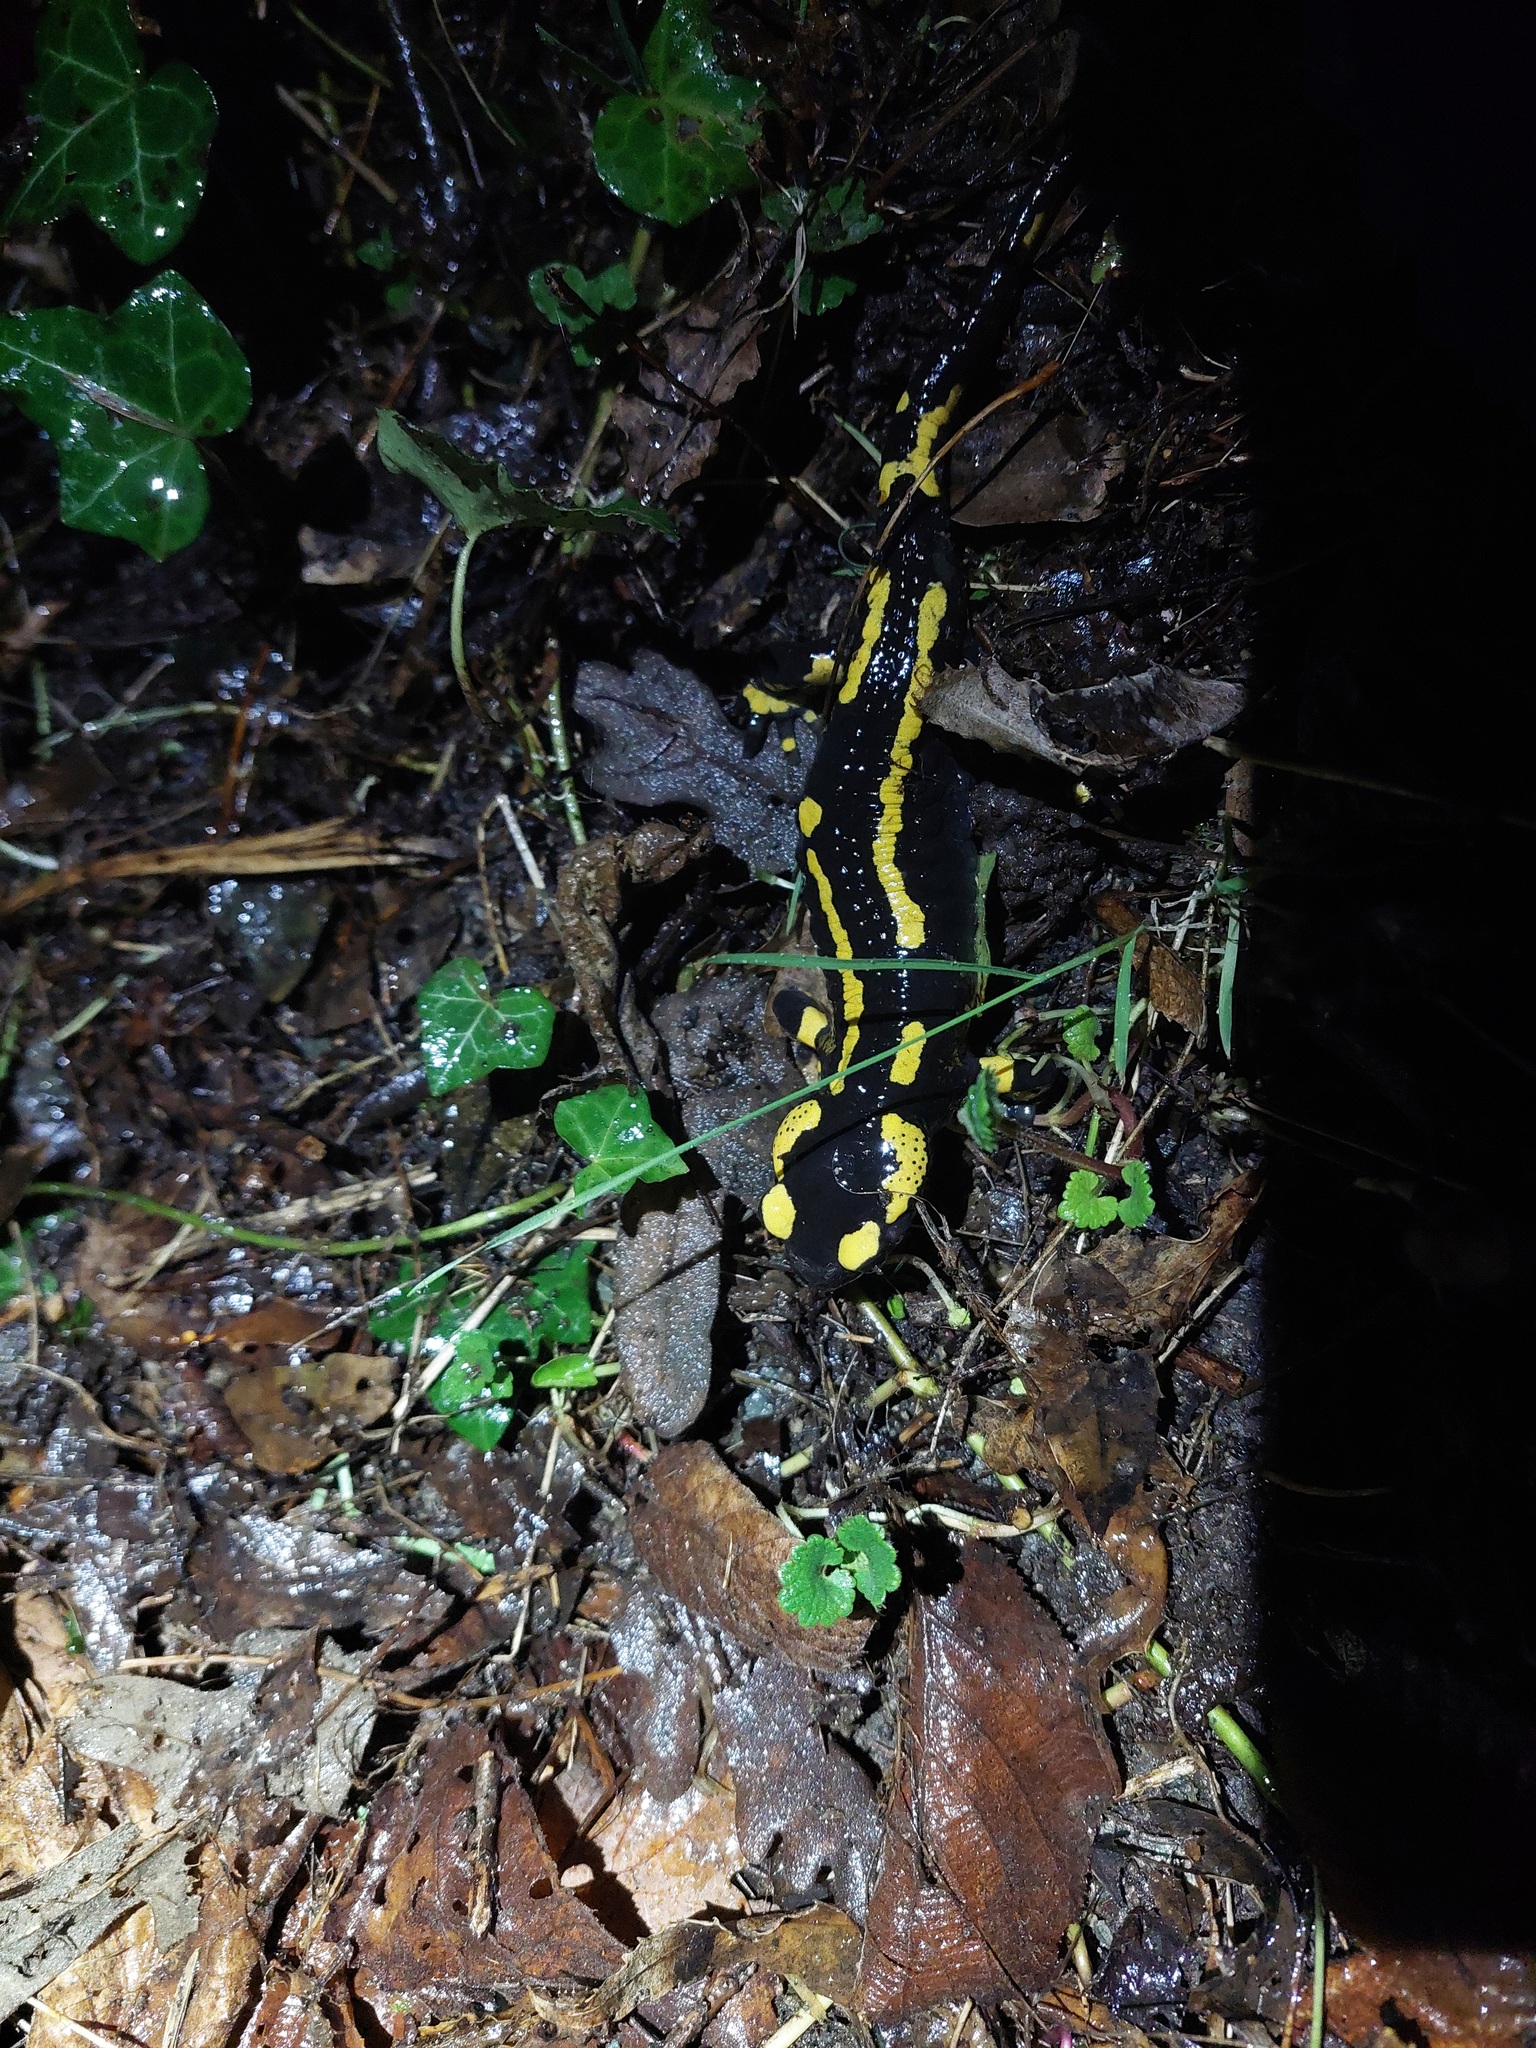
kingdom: Animalia
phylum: Chordata
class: Amphibia
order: Caudata
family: Salamandridae
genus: Salamandra
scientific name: Salamandra salamandra
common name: Fire salamander
